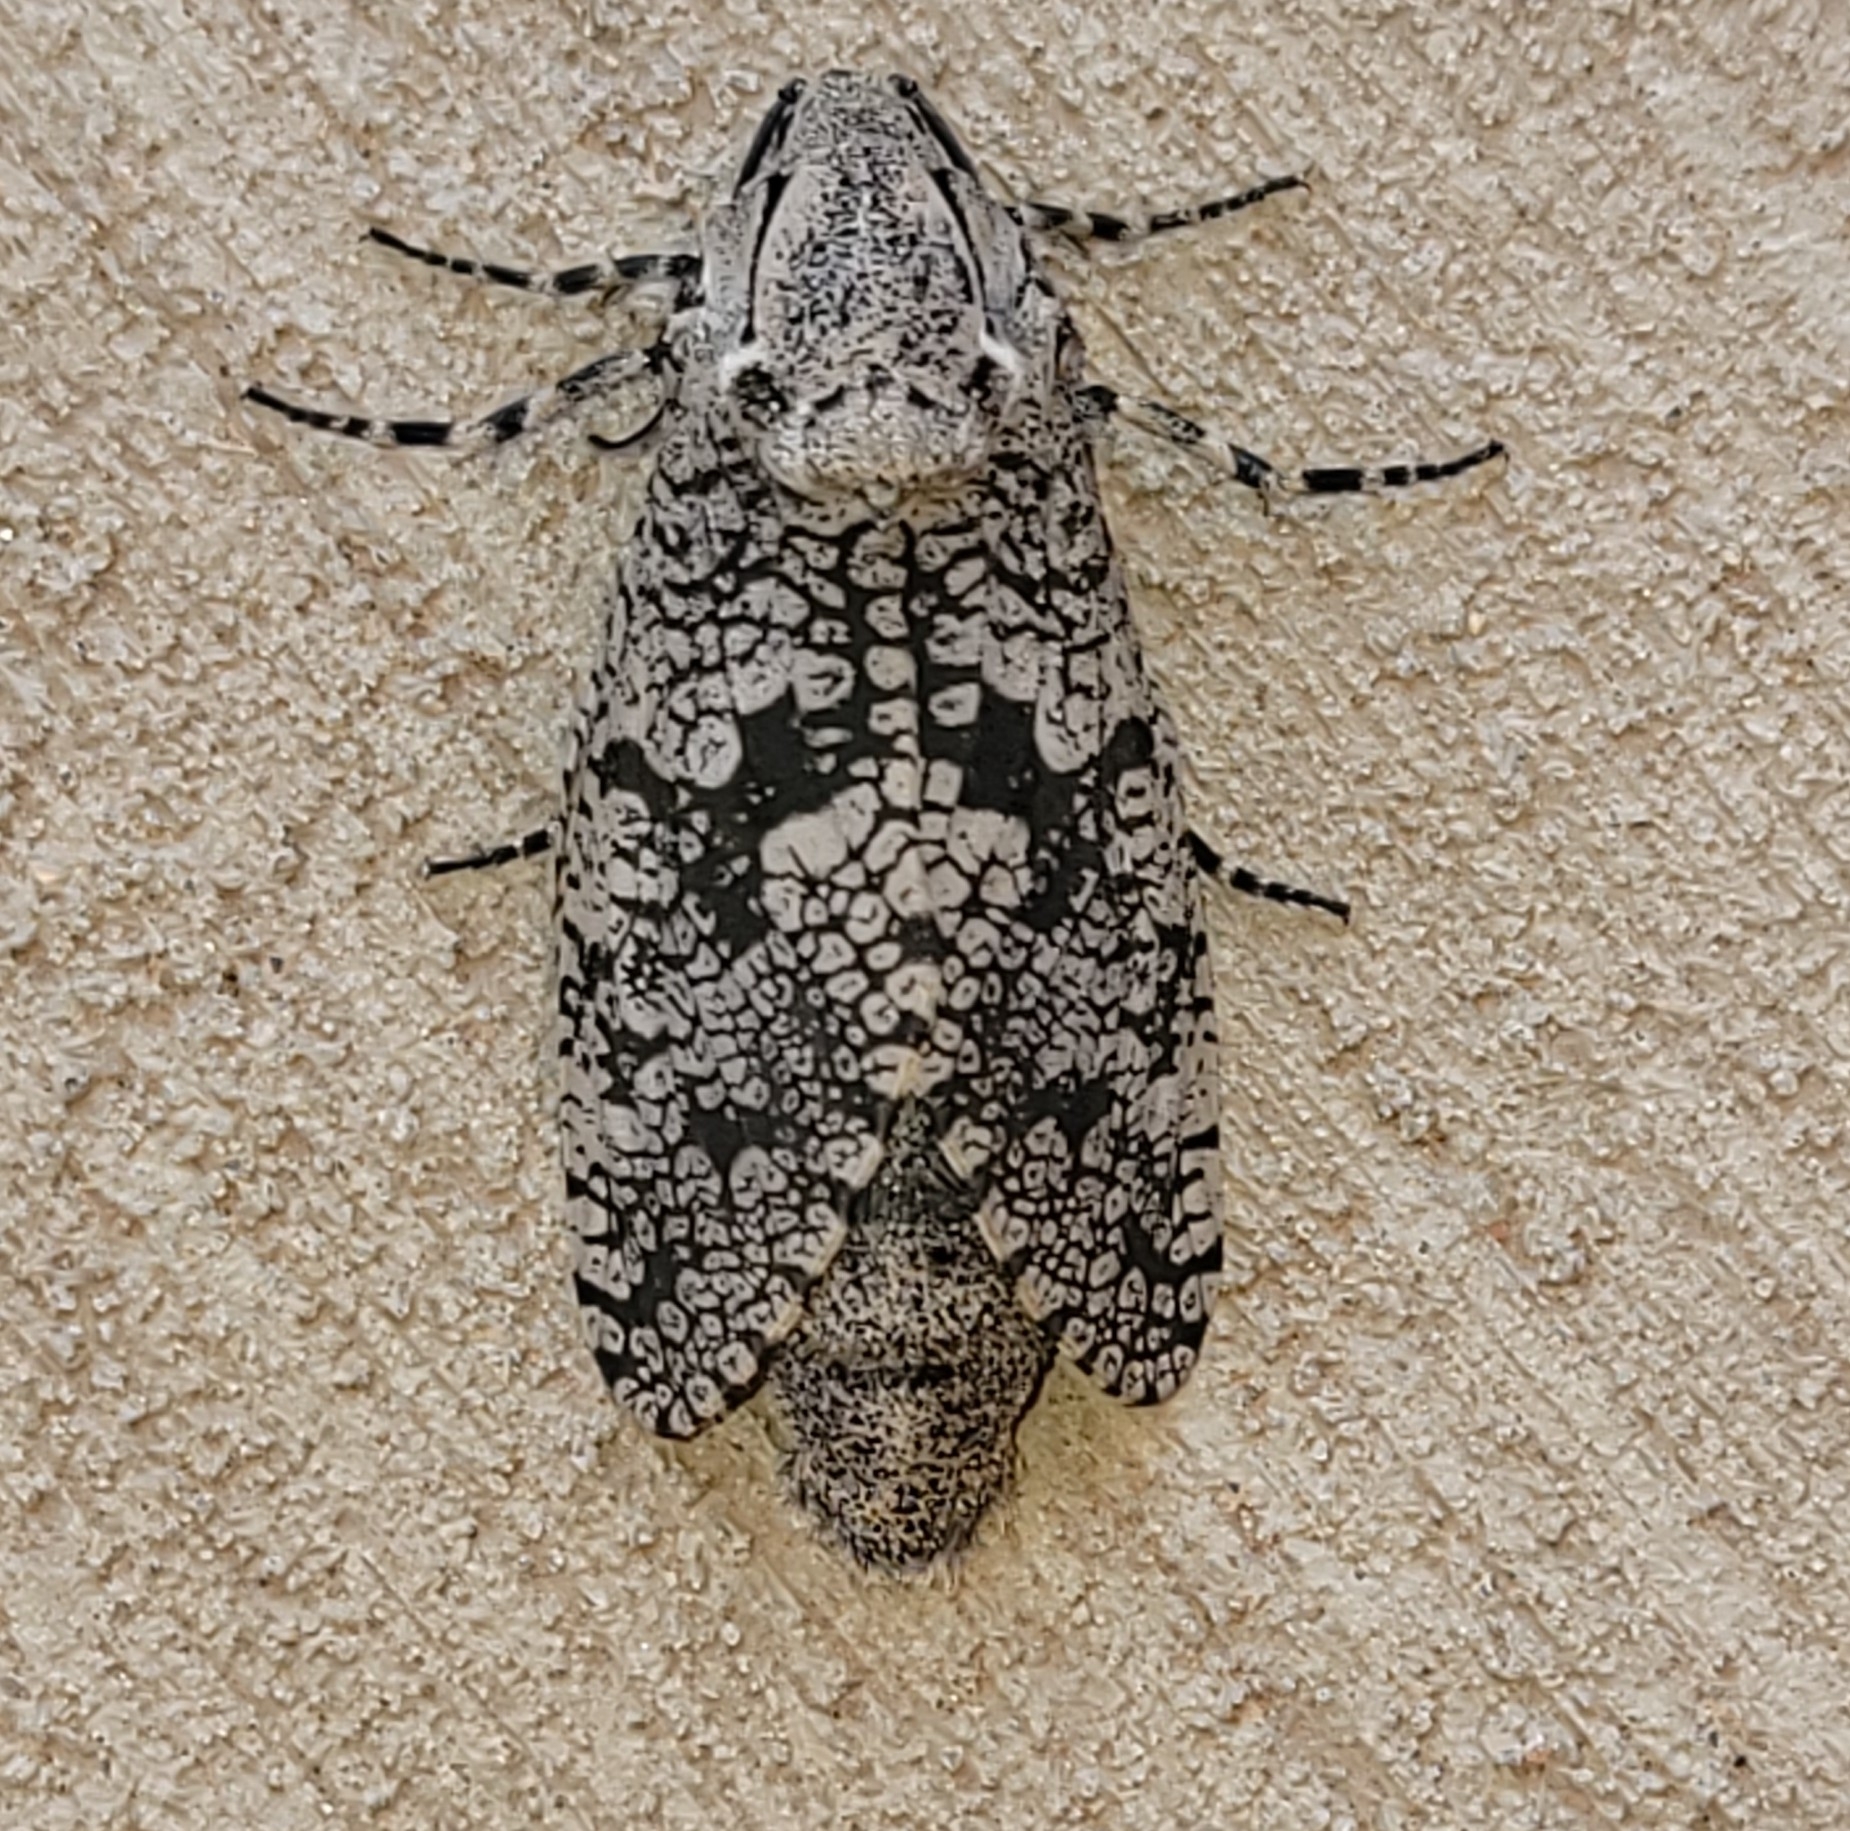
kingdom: Animalia
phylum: Arthropoda
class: Insecta
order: Lepidoptera
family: Cossidae
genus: Prionoxystus
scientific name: Prionoxystus robiniae
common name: Carpenterworm
